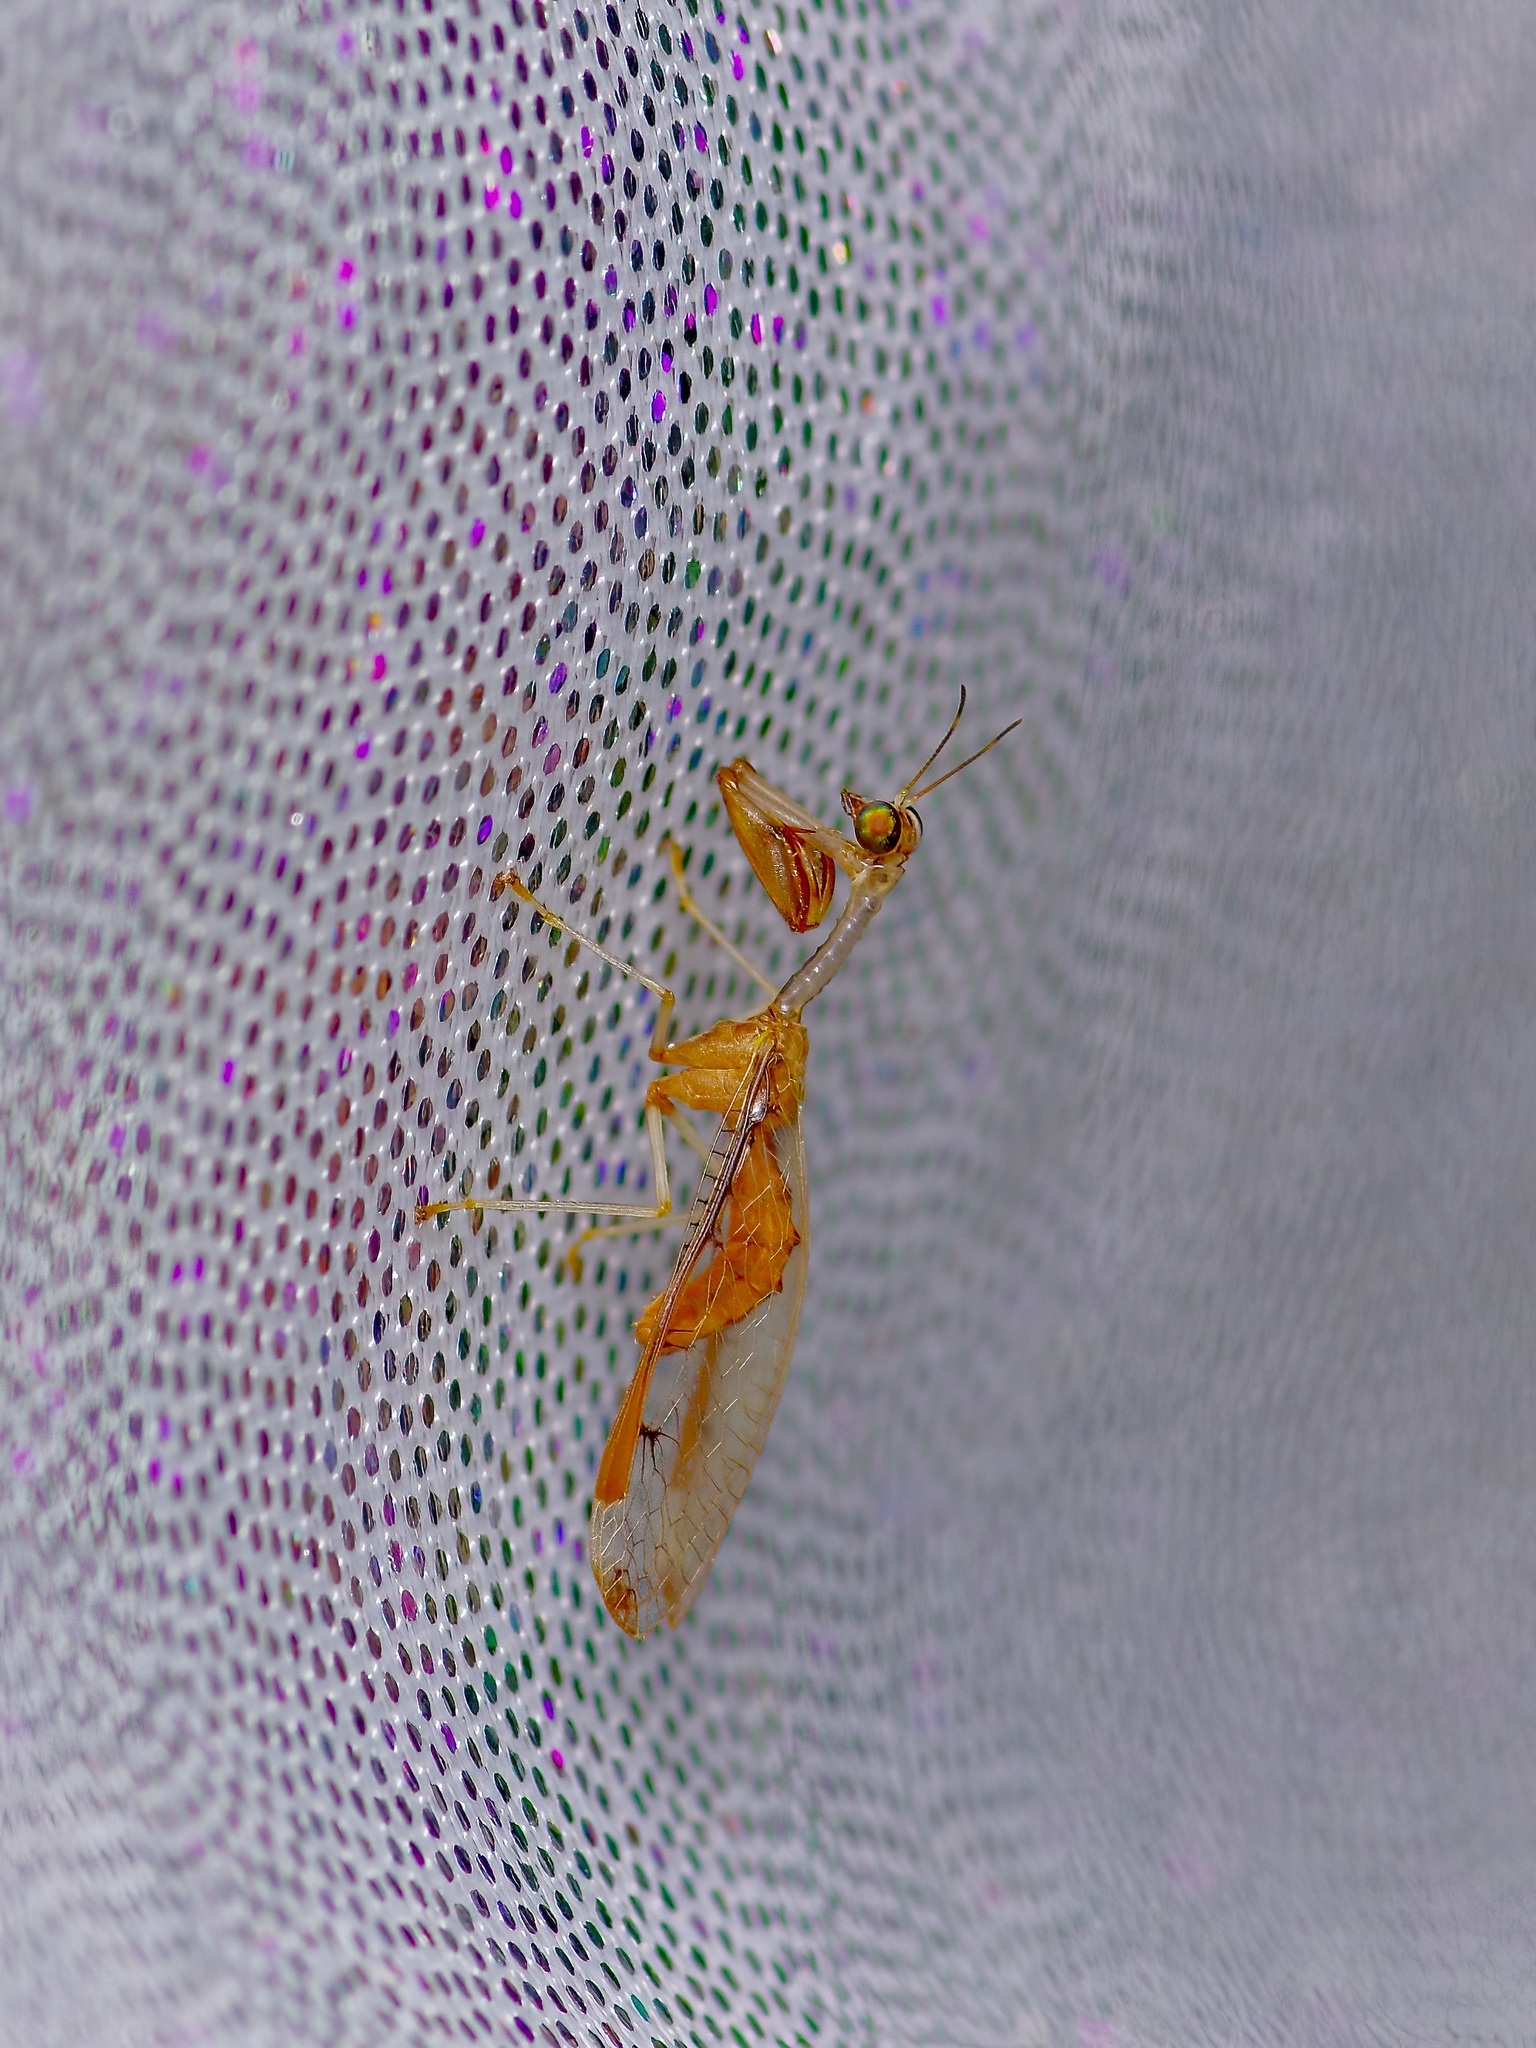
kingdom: Animalia
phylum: Arthropoda
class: Insecta
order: Neuroptera
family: Mantispidae
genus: Dicromantispa
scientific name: Dicromantispa interrupta
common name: Four-spotted mantidfly
